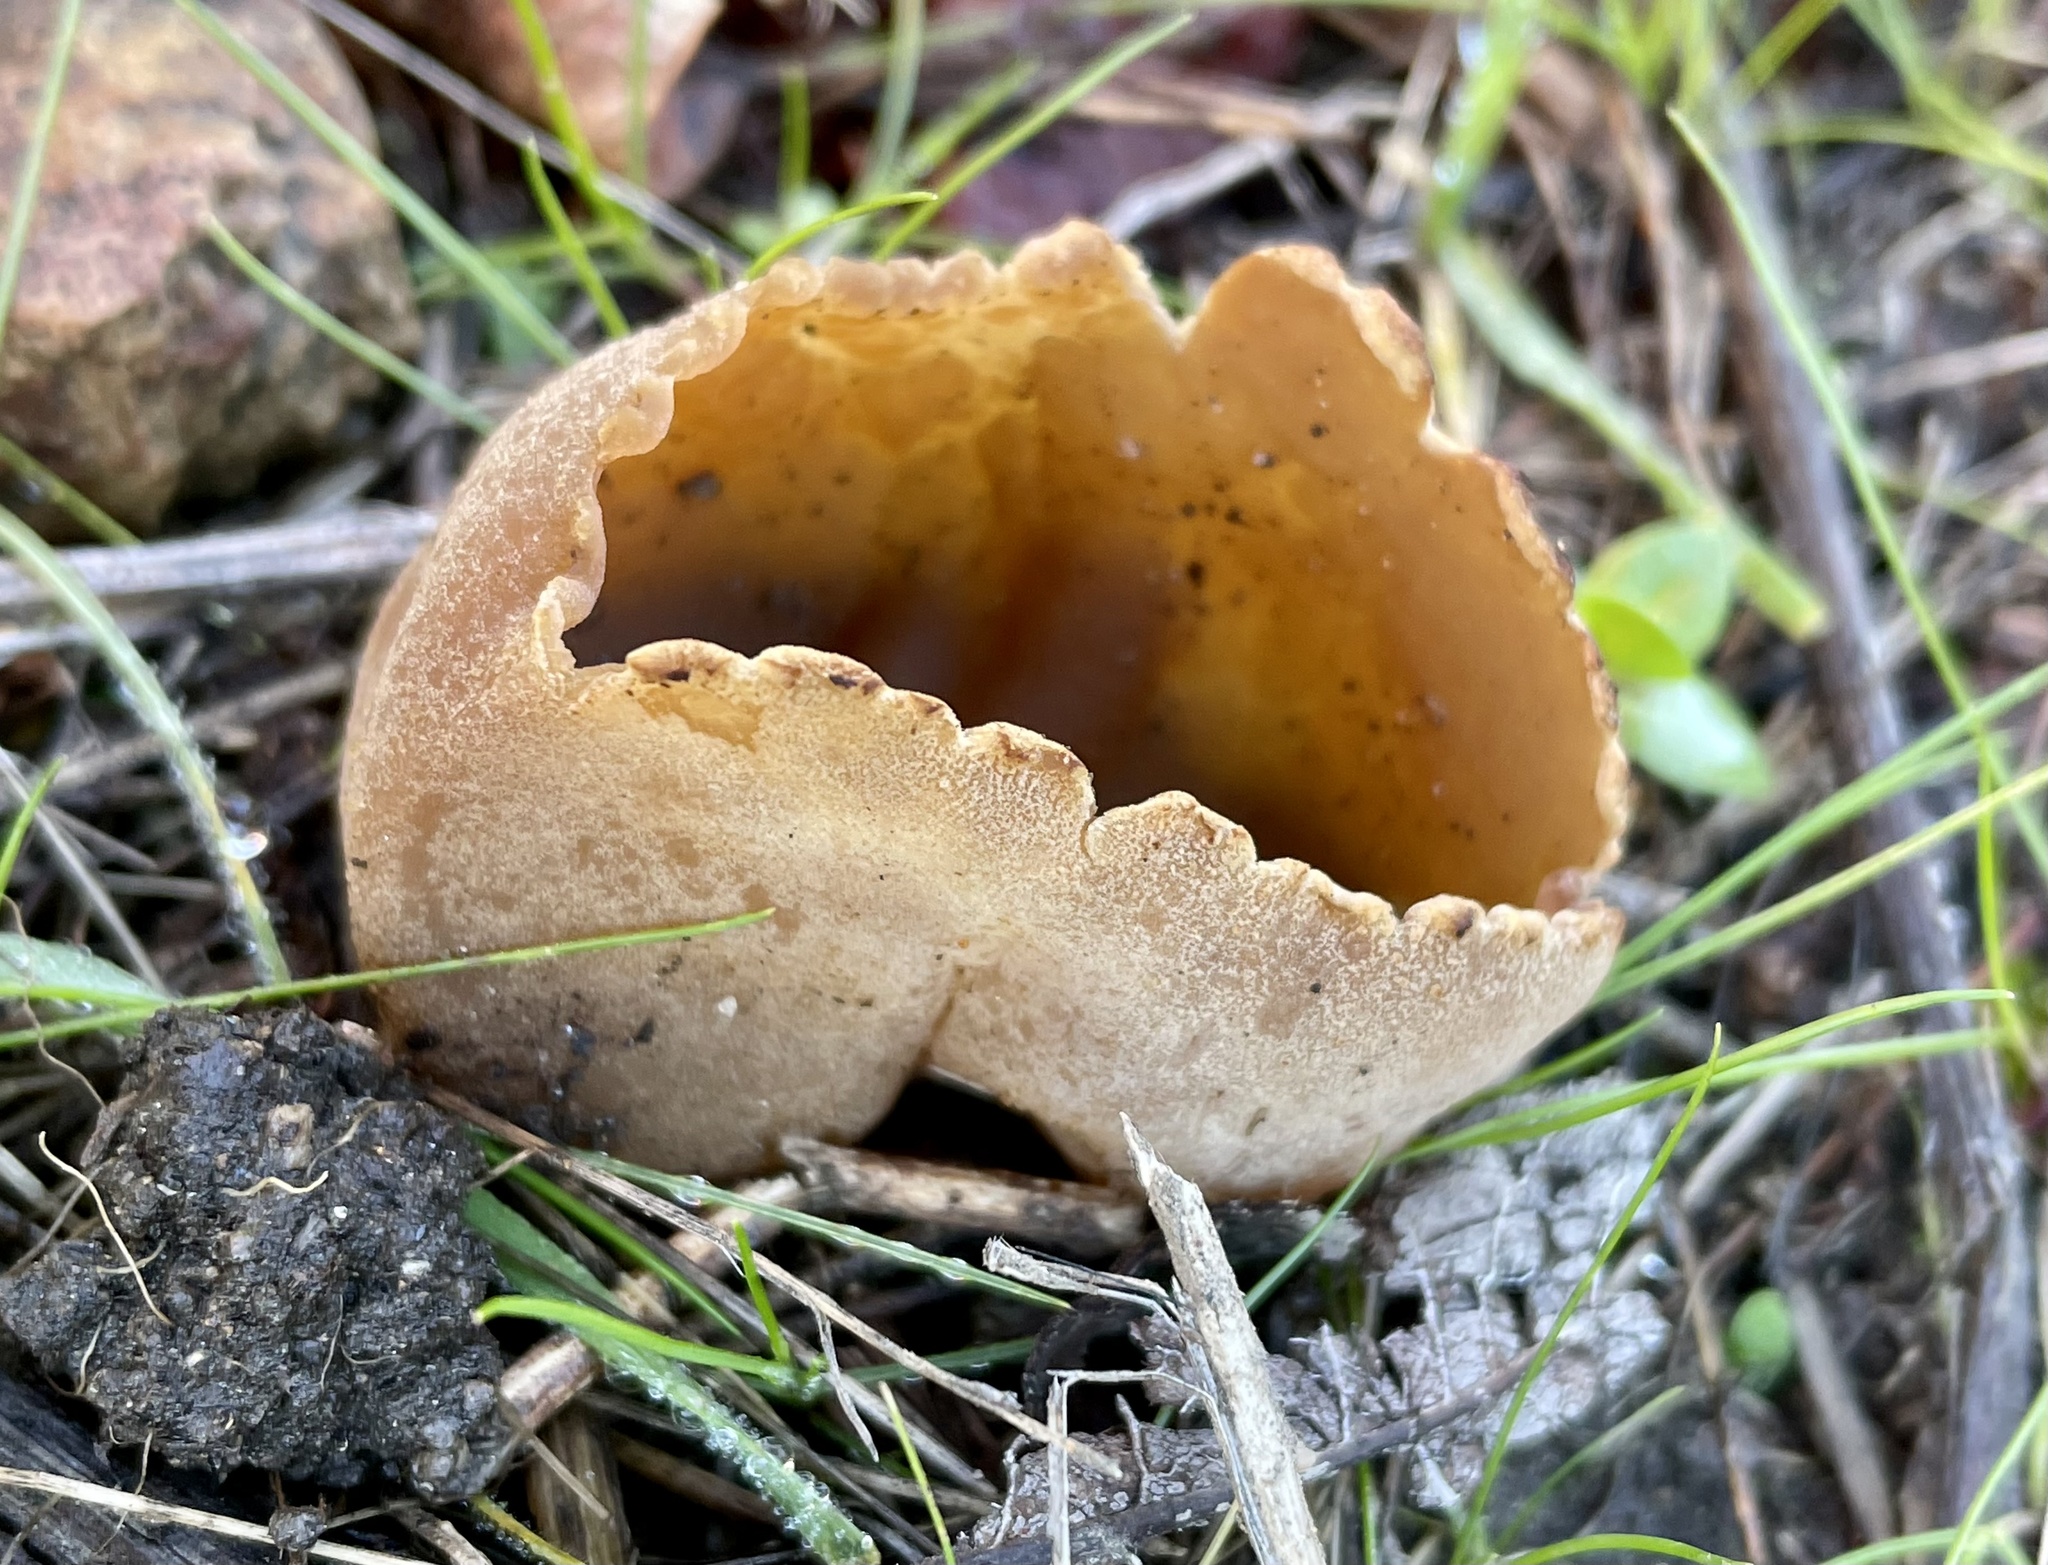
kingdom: Fungi
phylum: Ascomycota
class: Pezizomycetes
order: Pezizales
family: Pezizaceae
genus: Peziza
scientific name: Peziza varia
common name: Layered cup
